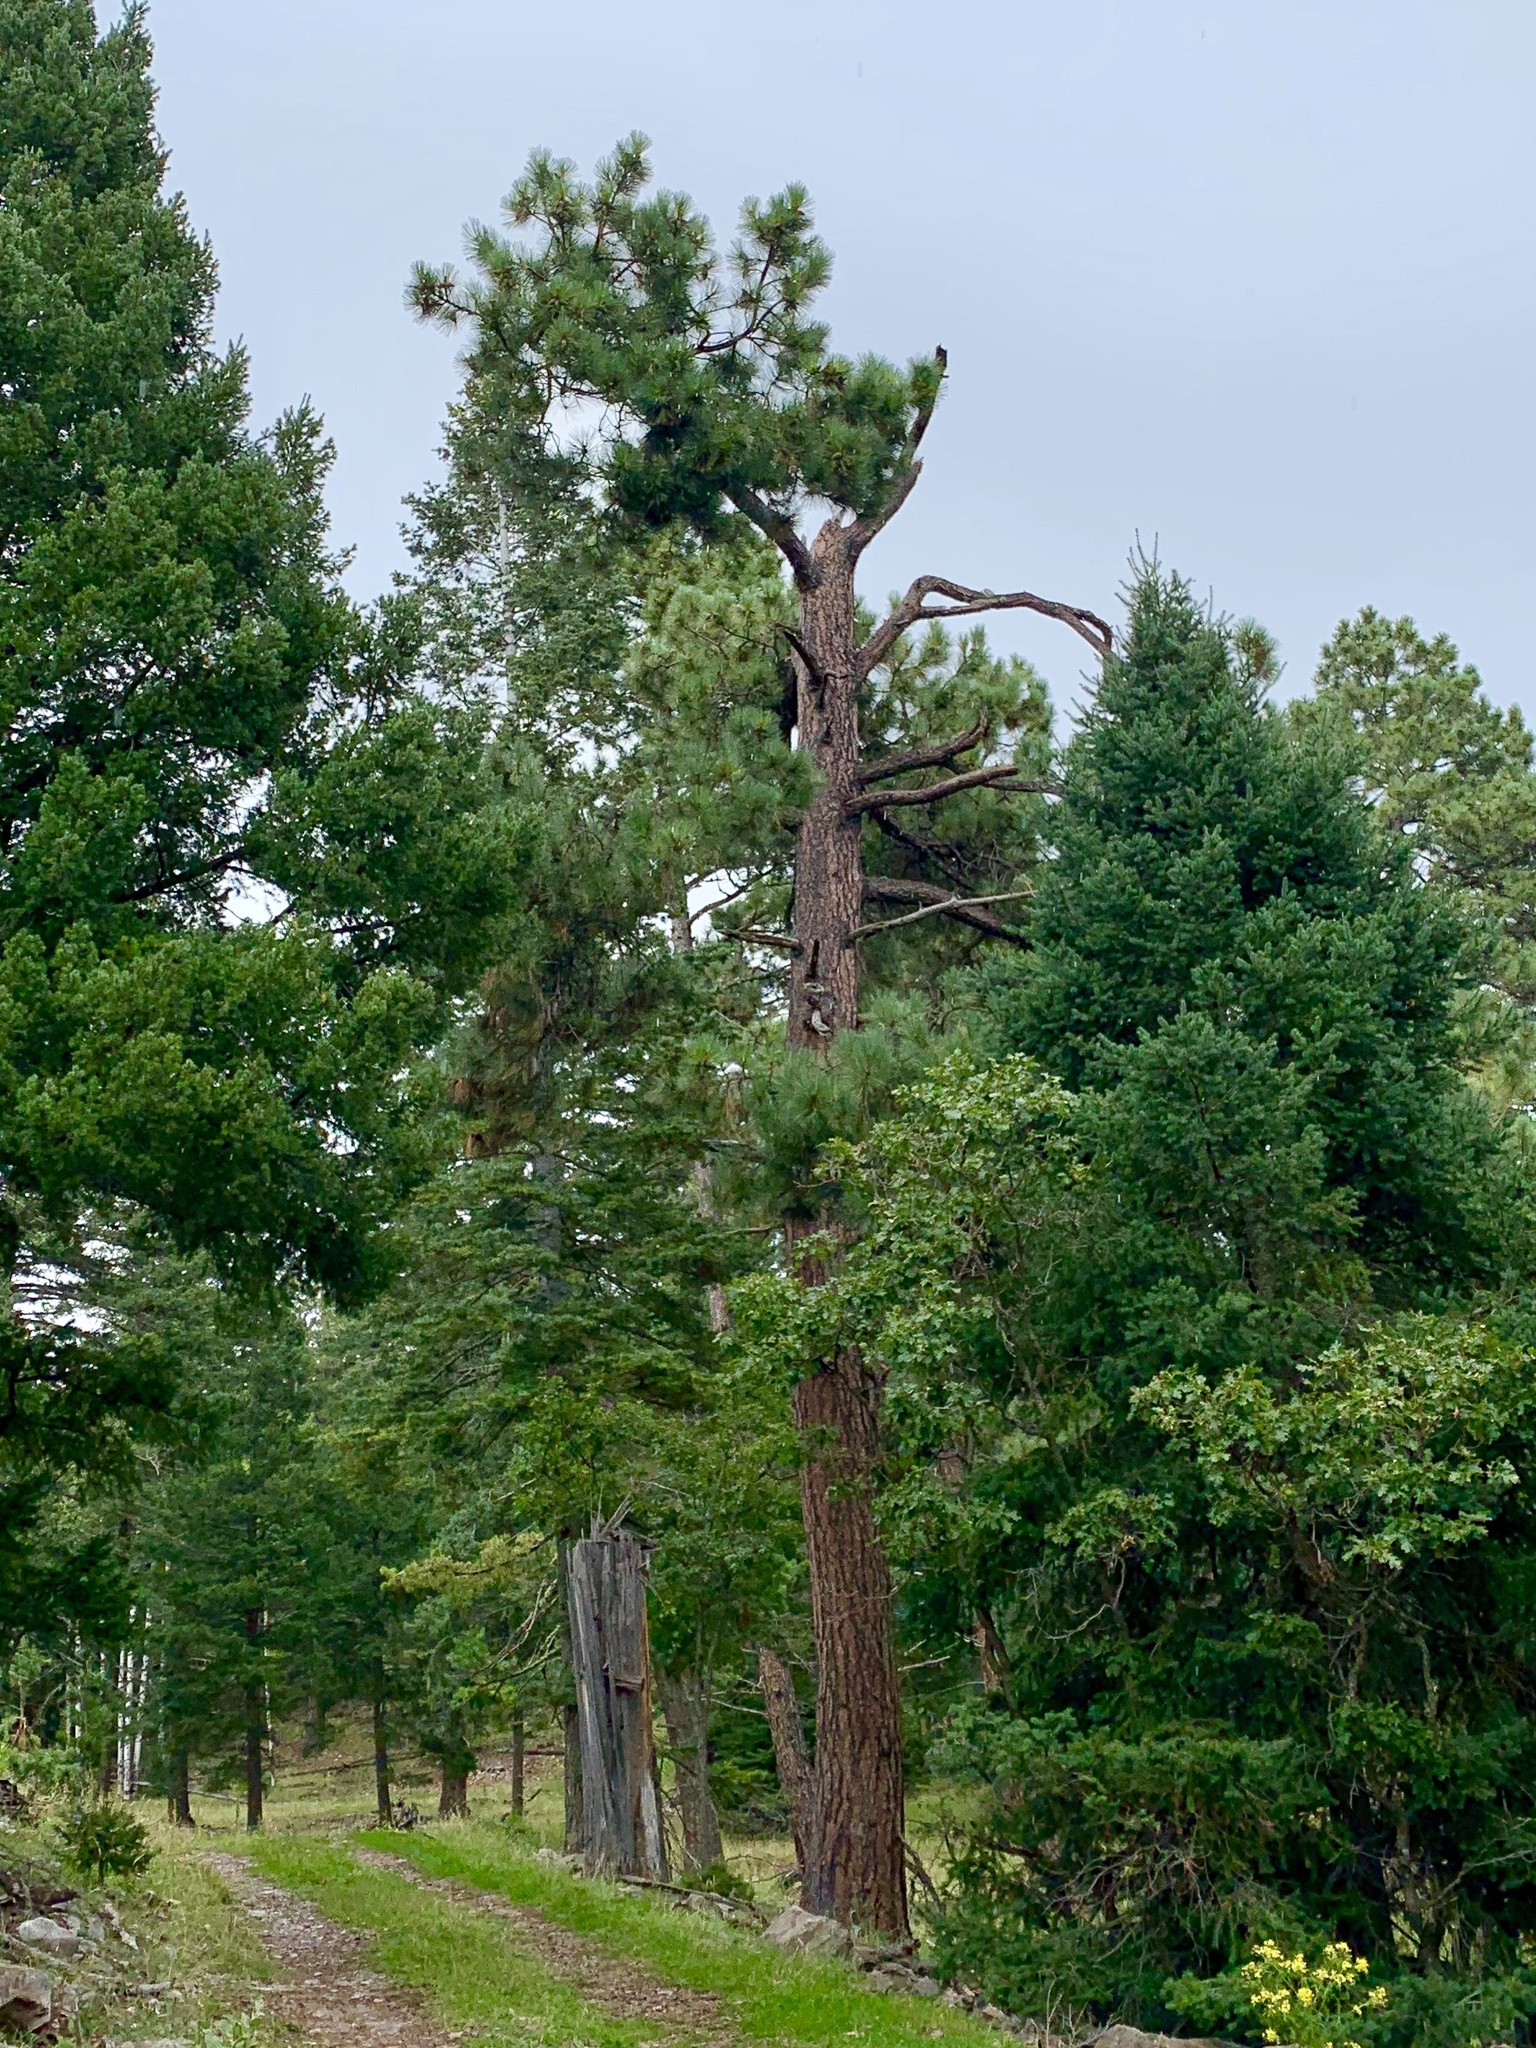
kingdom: Plantae
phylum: Tracheophyta
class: Pinopsida
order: Pinales
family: Pinaceae
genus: Pinus
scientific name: Pinus ponderosa
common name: Western yellow-pine
